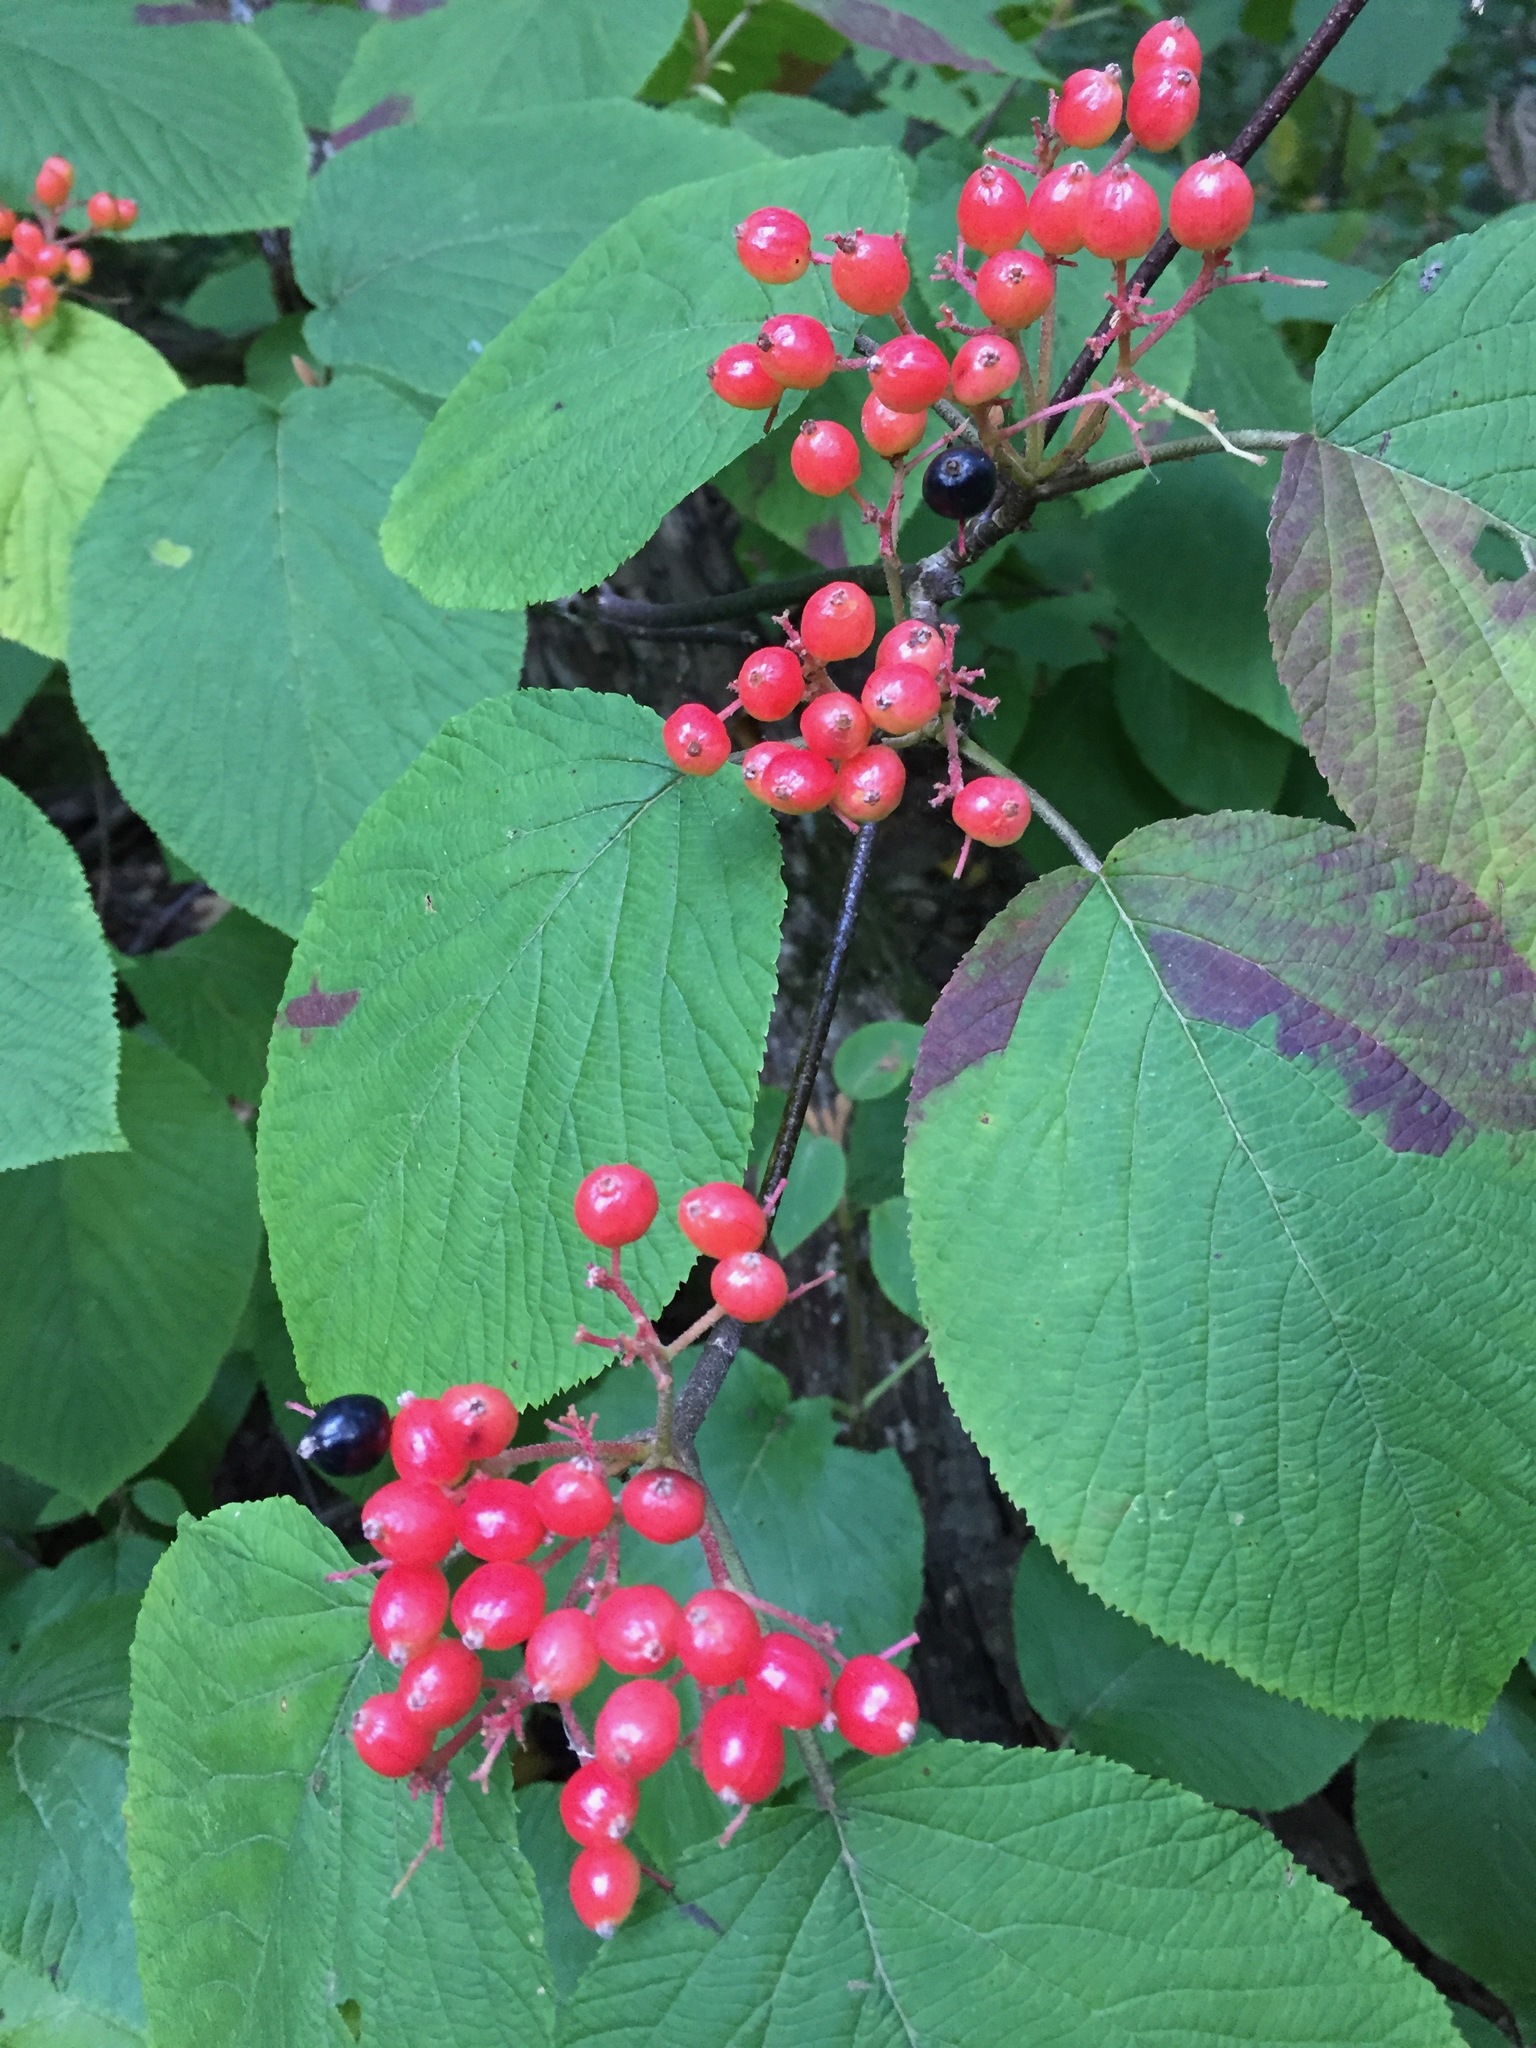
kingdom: Plantae
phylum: Tracheophyta
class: Magnoliopsida
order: Dipsacales
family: Viburnaceae
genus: Viburnum
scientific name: Viburnum lantanoides
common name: Hobblebush
